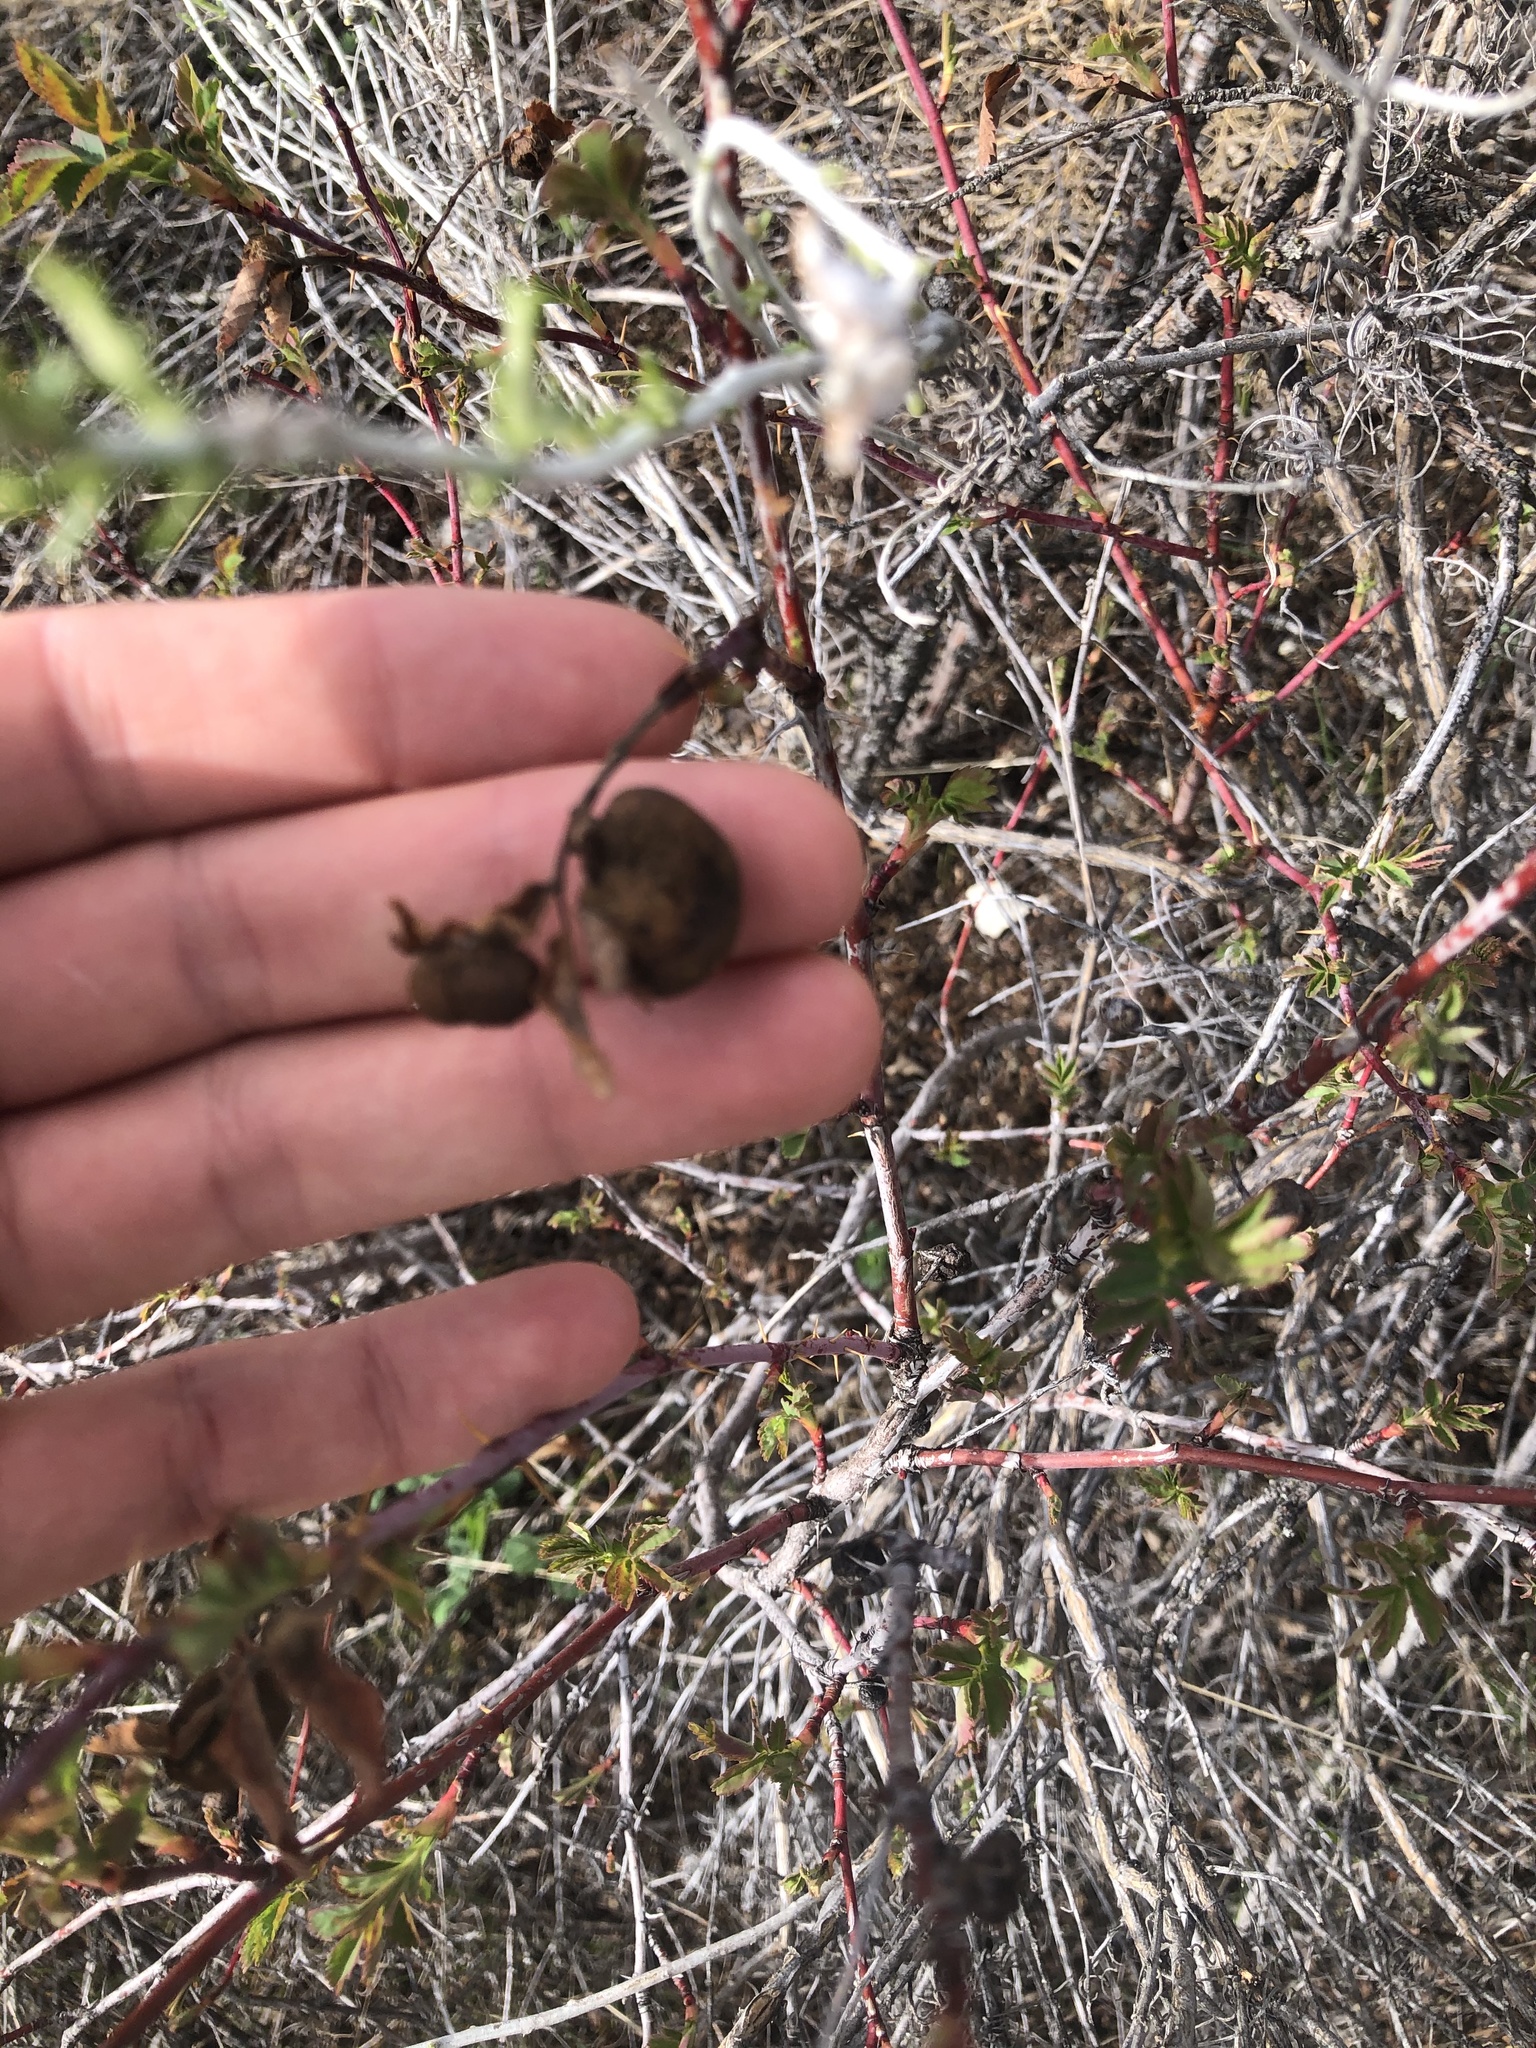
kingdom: Animalia
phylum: Arthropoda
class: Insecta
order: Hymenoptera
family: Cynipidae
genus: Diplolepis
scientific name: Diplolepis variabilis
